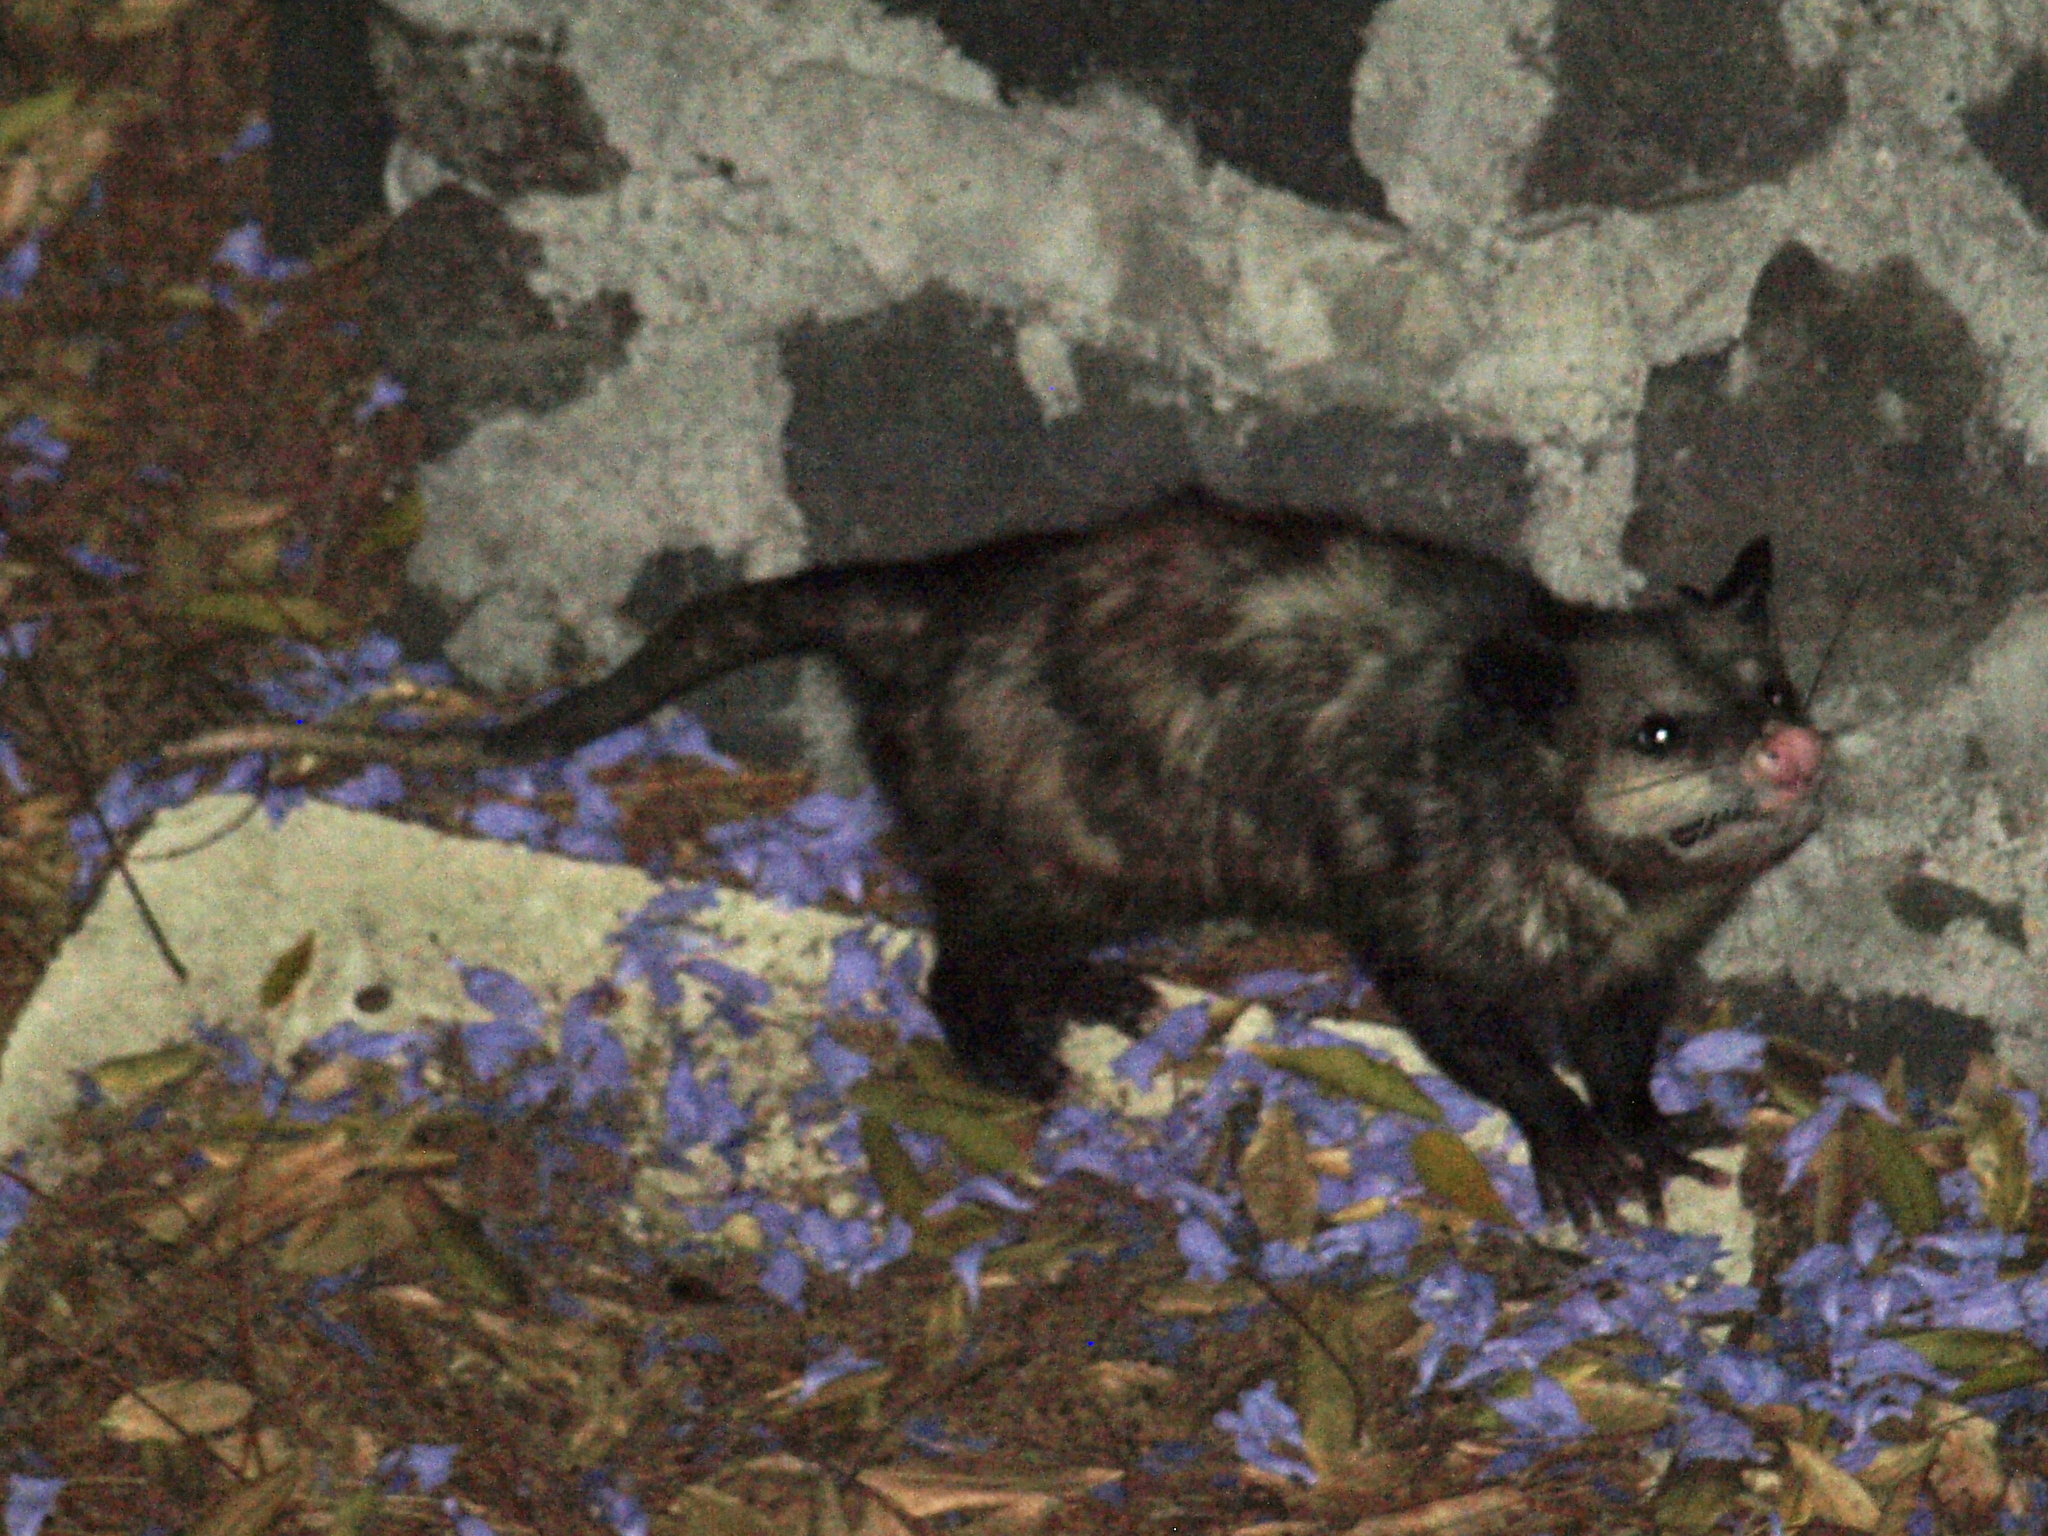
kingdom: Animalia
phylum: Chordata
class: Mammalia
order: Didelphimorphia
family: Didelphidae
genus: Didelphis
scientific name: Didelphis virginiana
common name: Virginia opossum
